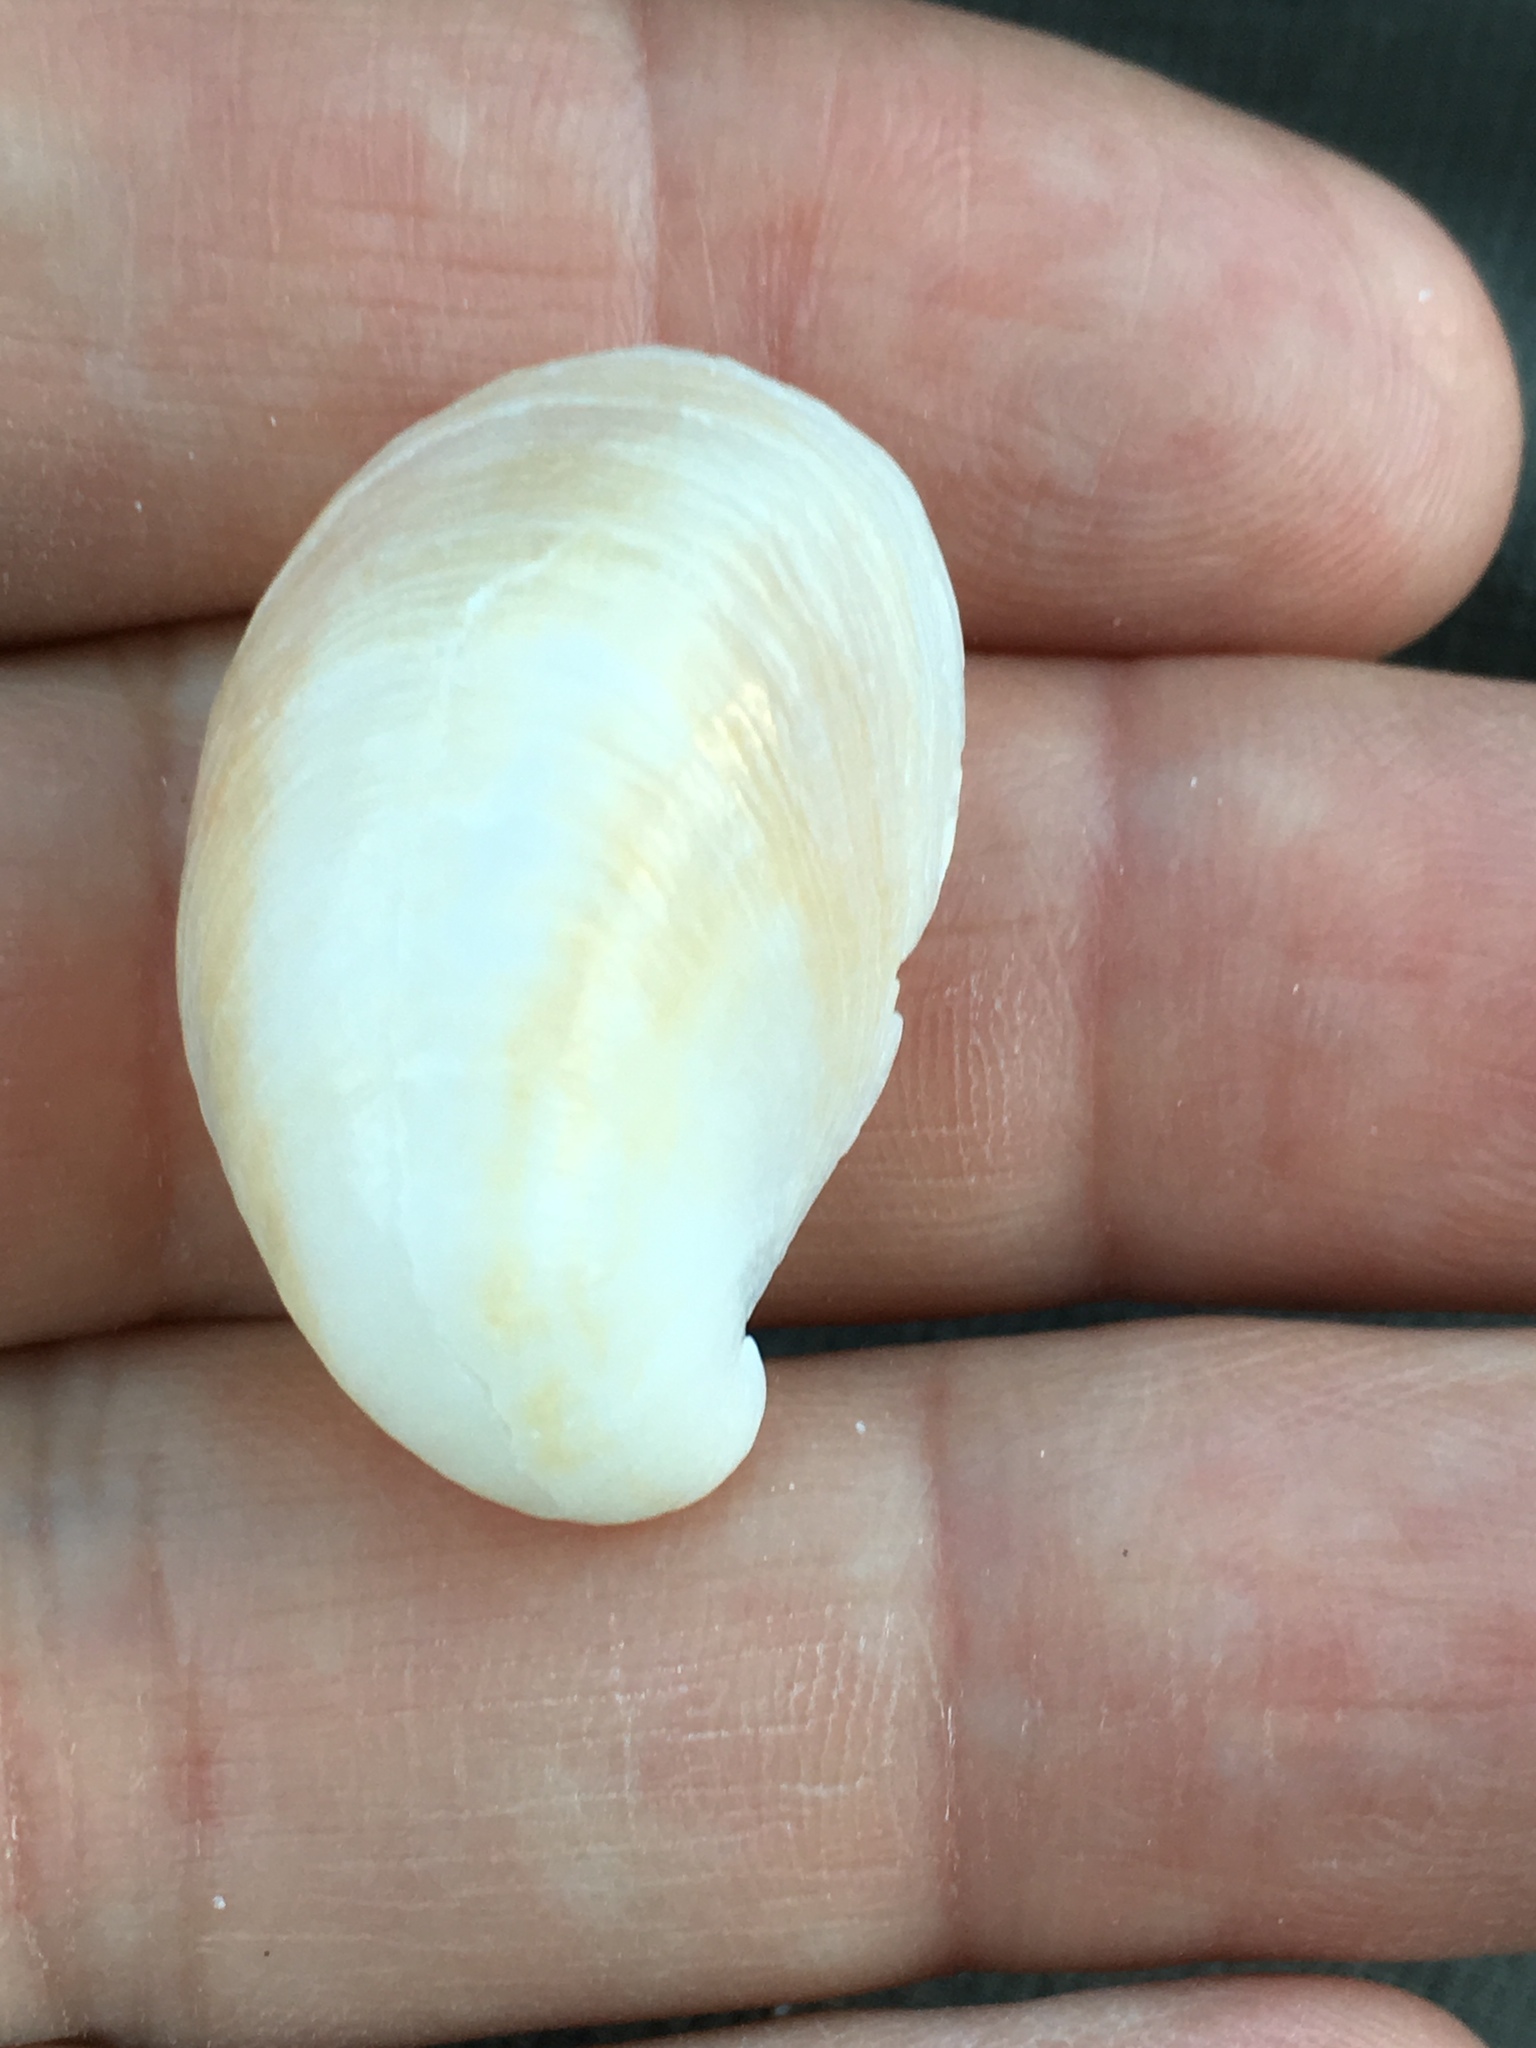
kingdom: Animalia
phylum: Mollusca
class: Gastropoda
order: Littorinimorpha
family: Calyptraeidae
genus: Crepidula
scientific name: Crepidula fornicata
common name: Slipper limpet
